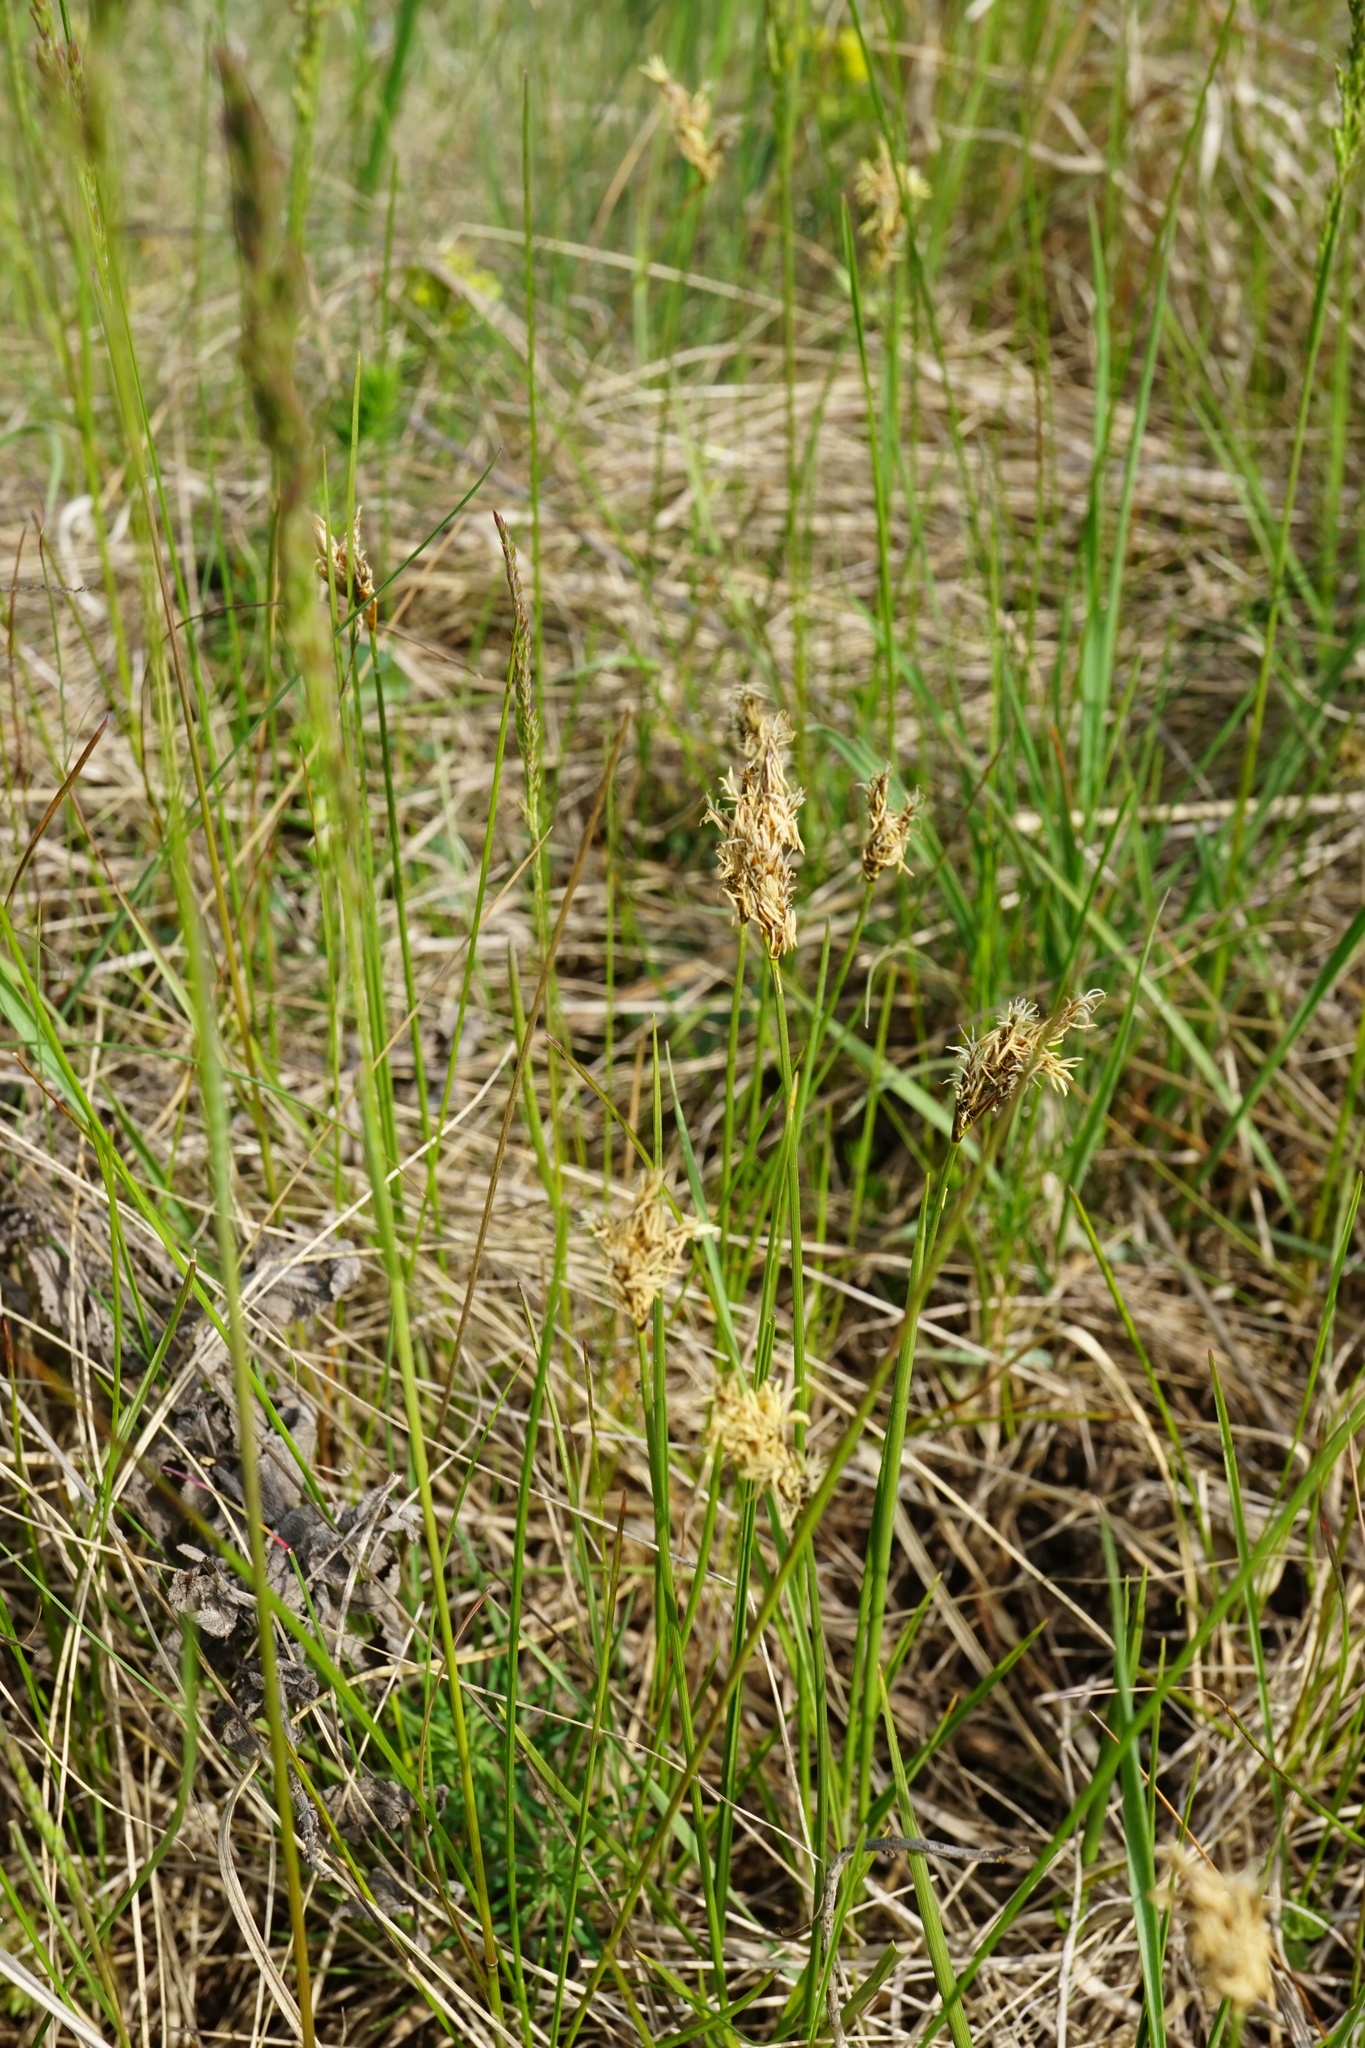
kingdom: Plantae
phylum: Tracheophyta
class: Liliopsida
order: Poales
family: Cyperaceae
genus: Carex
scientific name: Carex praecox
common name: Early sedge
